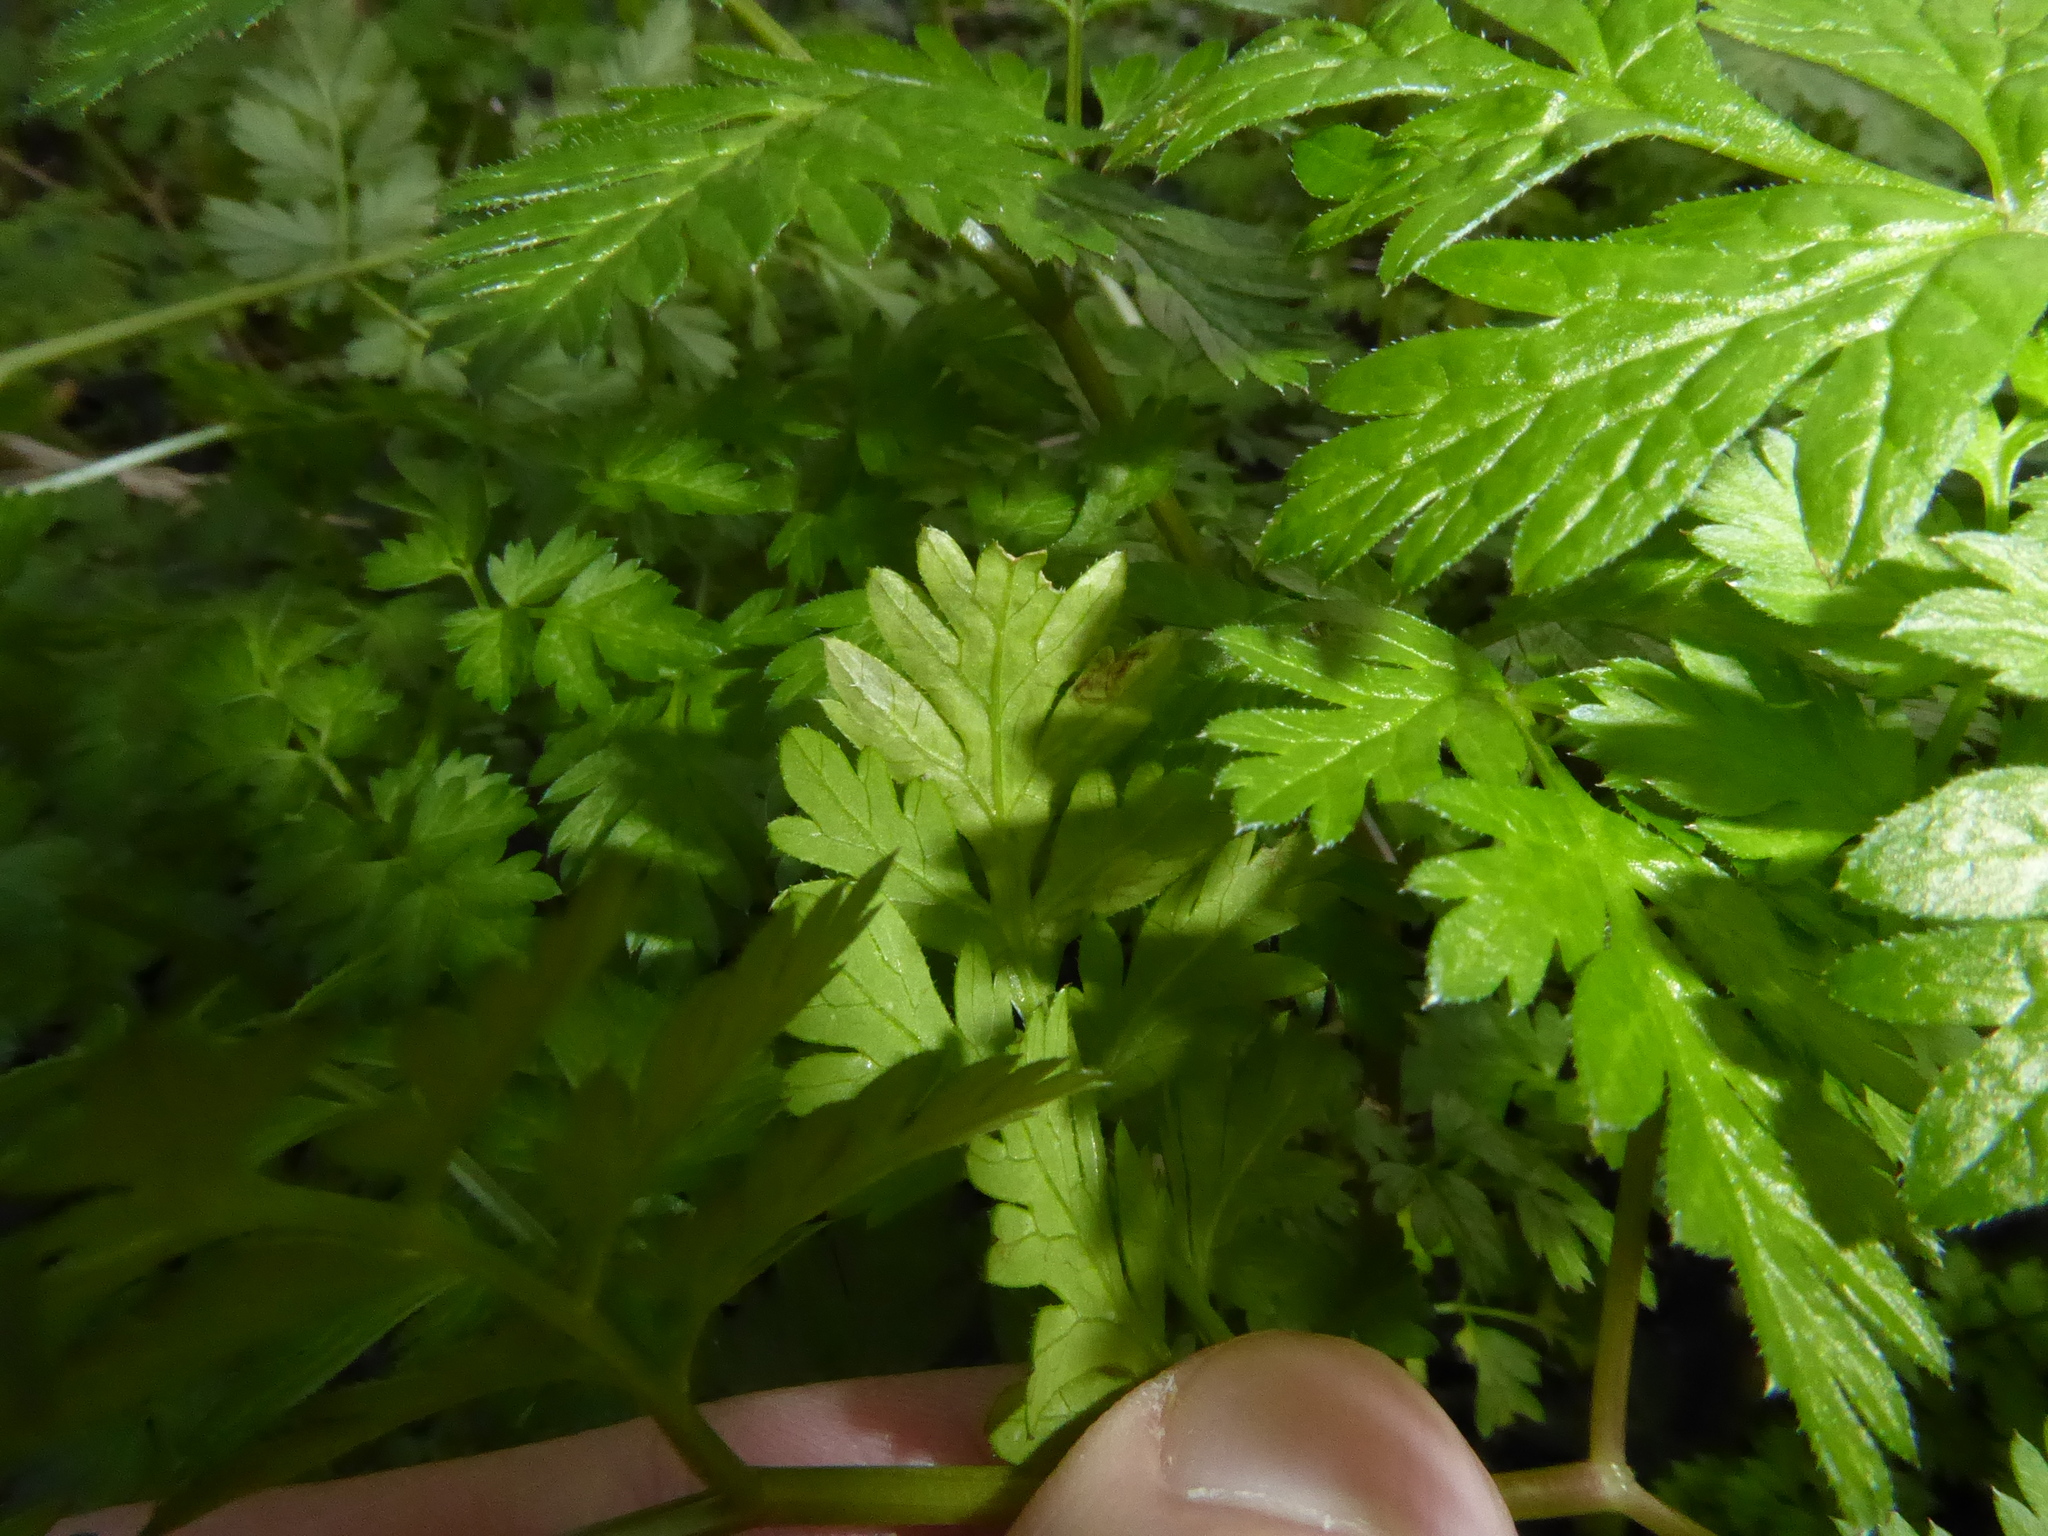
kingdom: Animalia
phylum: Arthropoda
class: Insecta
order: Diptera
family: Agromyzidae
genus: Phytomyza
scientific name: Phytomyza chaerophylli
